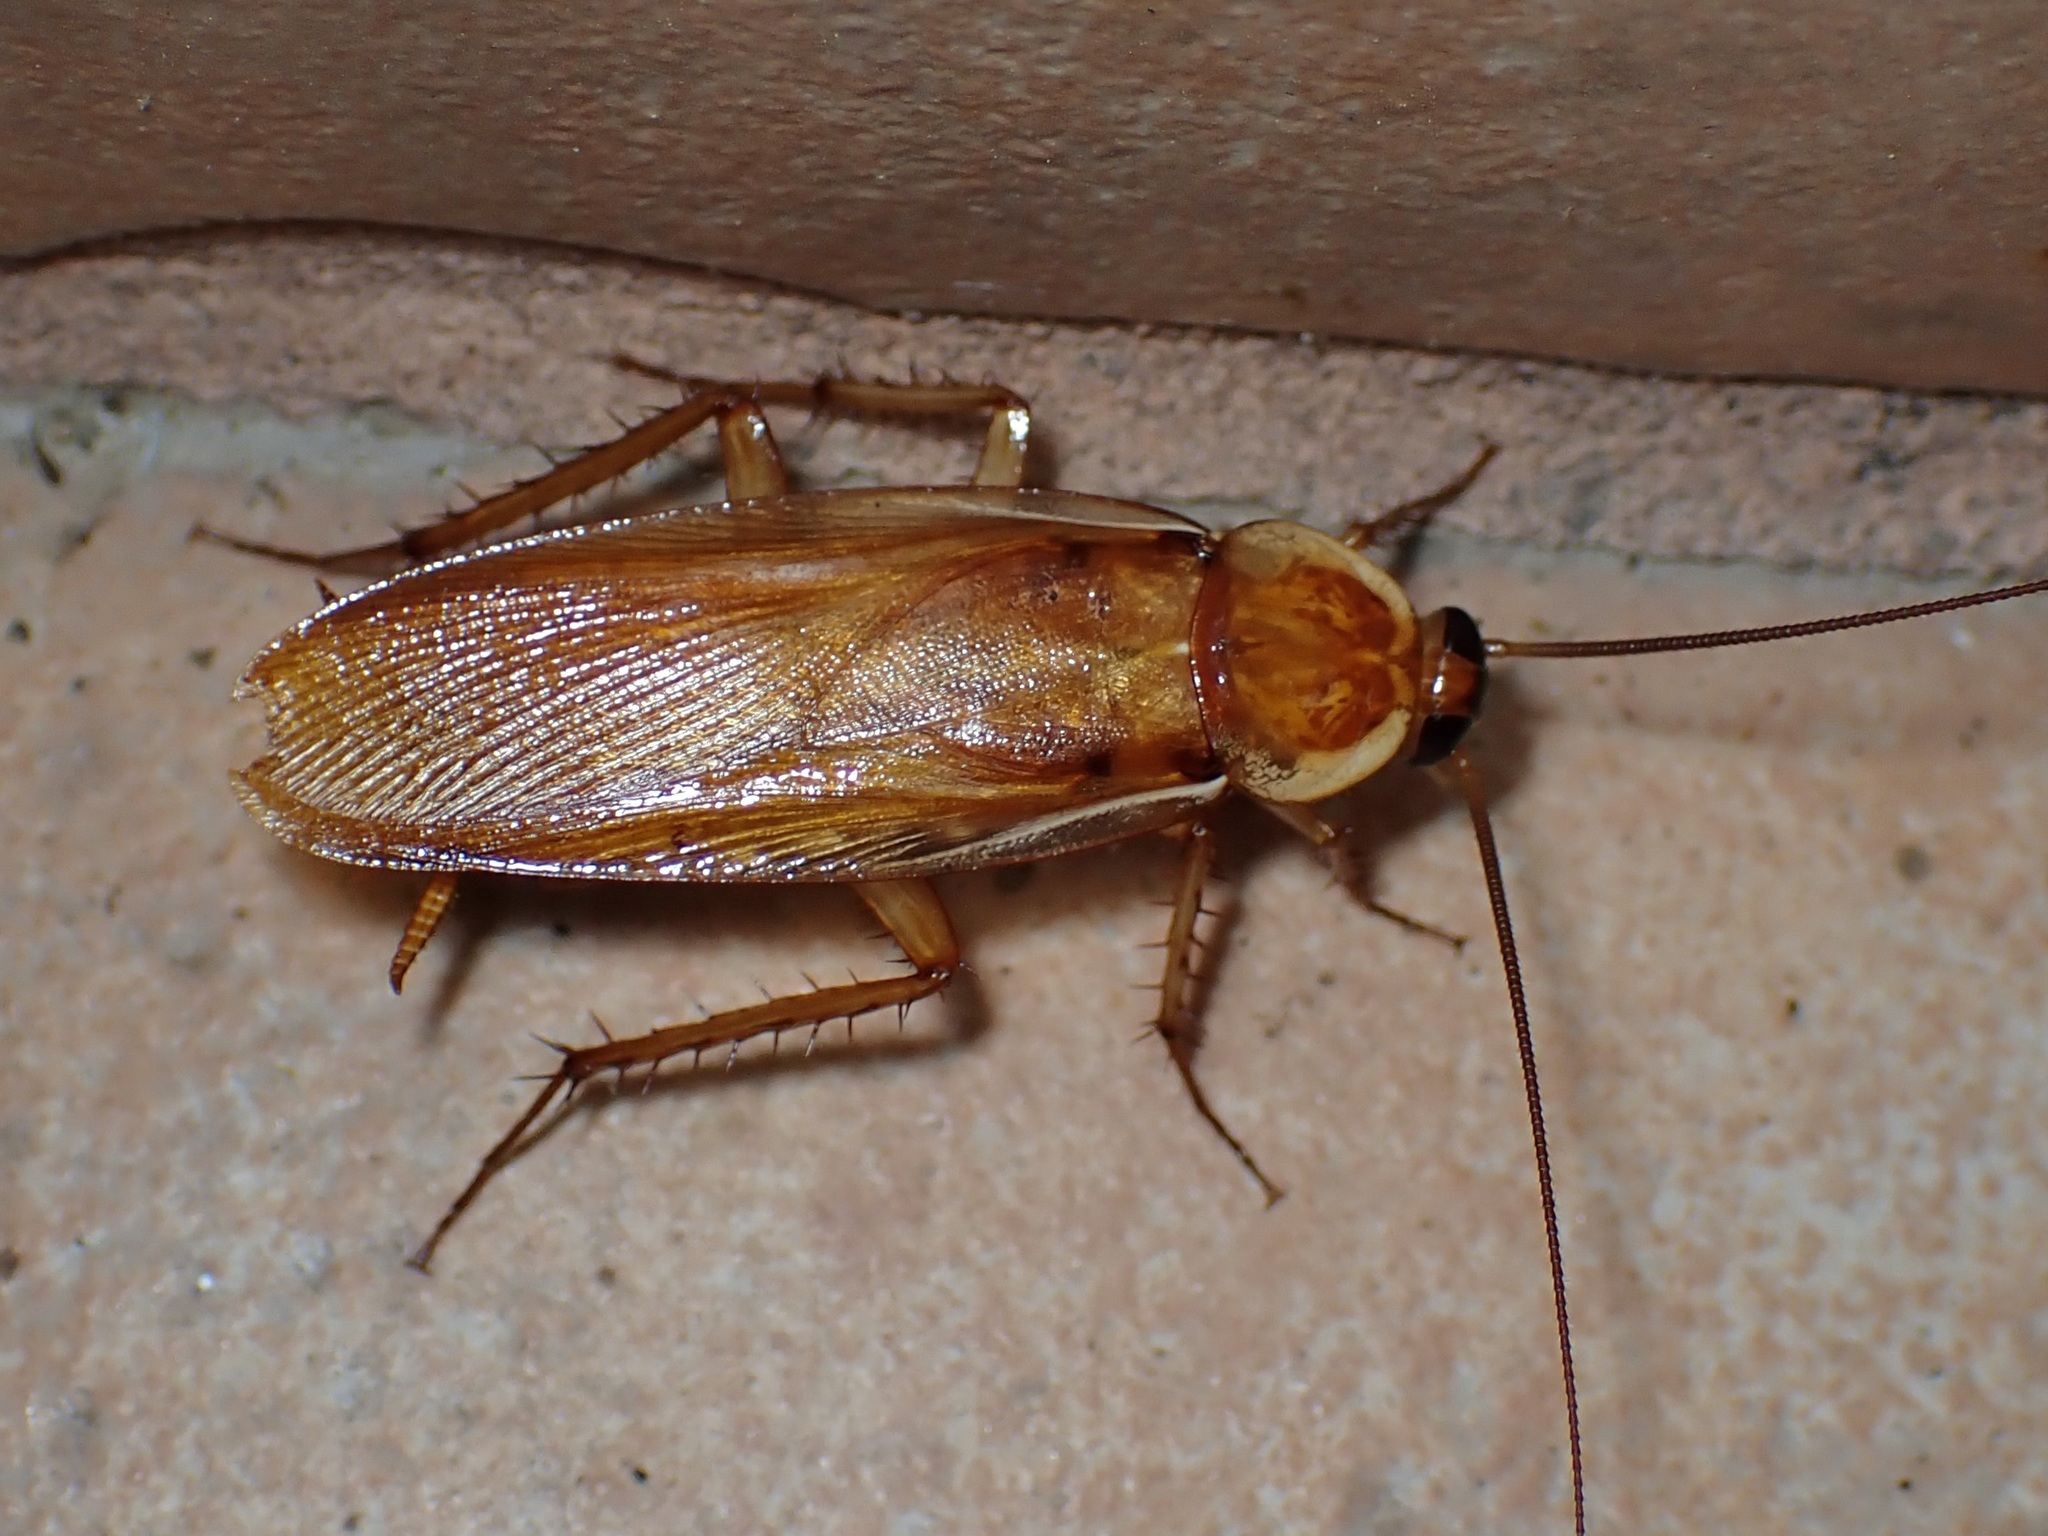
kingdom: Animalia
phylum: Arthropoda
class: Insecta
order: Blattodea
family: Blattidae
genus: Periplaneta
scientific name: Periplaneta lateralis
